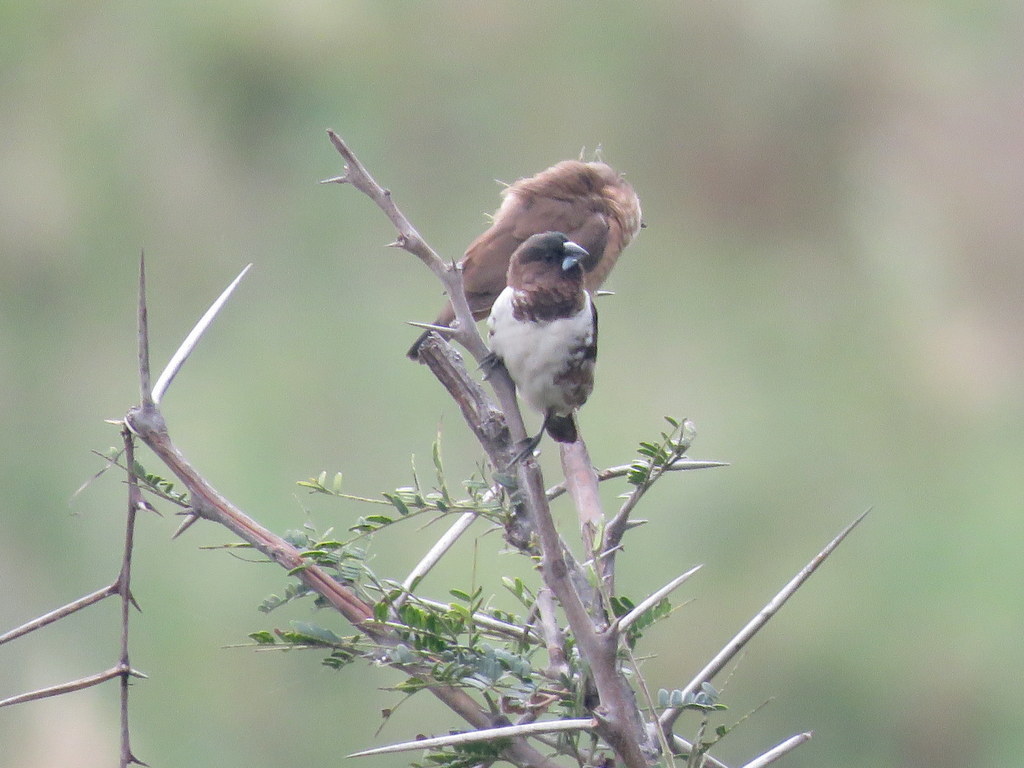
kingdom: Animalia
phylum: Chordata
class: Aves
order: Passeriformes
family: Estrildidae
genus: Lonchura
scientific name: Lonchura cucullata
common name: Bronze mannikin
